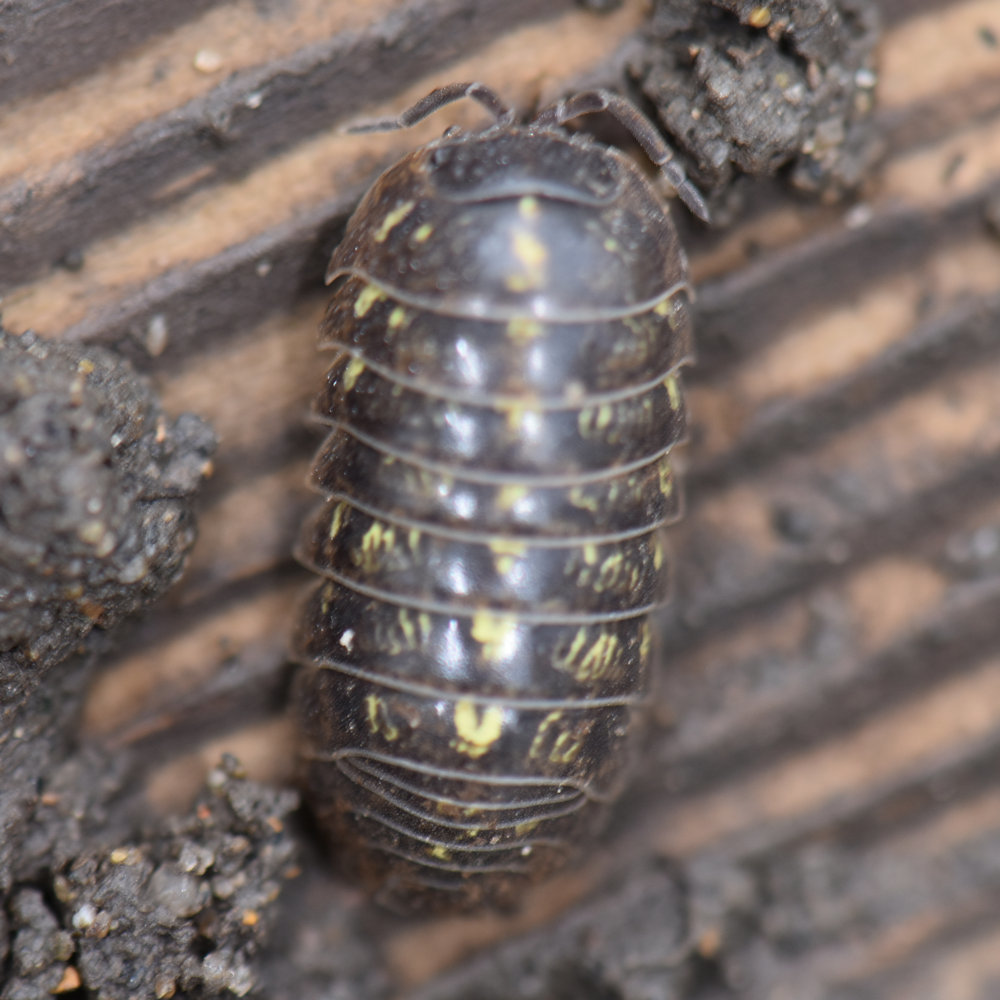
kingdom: Animalia
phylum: Arthropoda
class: Malacostraca
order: Isopoda
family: Armadillidiidae
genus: Armadillidium
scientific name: Armadillidium vulgare
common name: Common pill woodlouse
